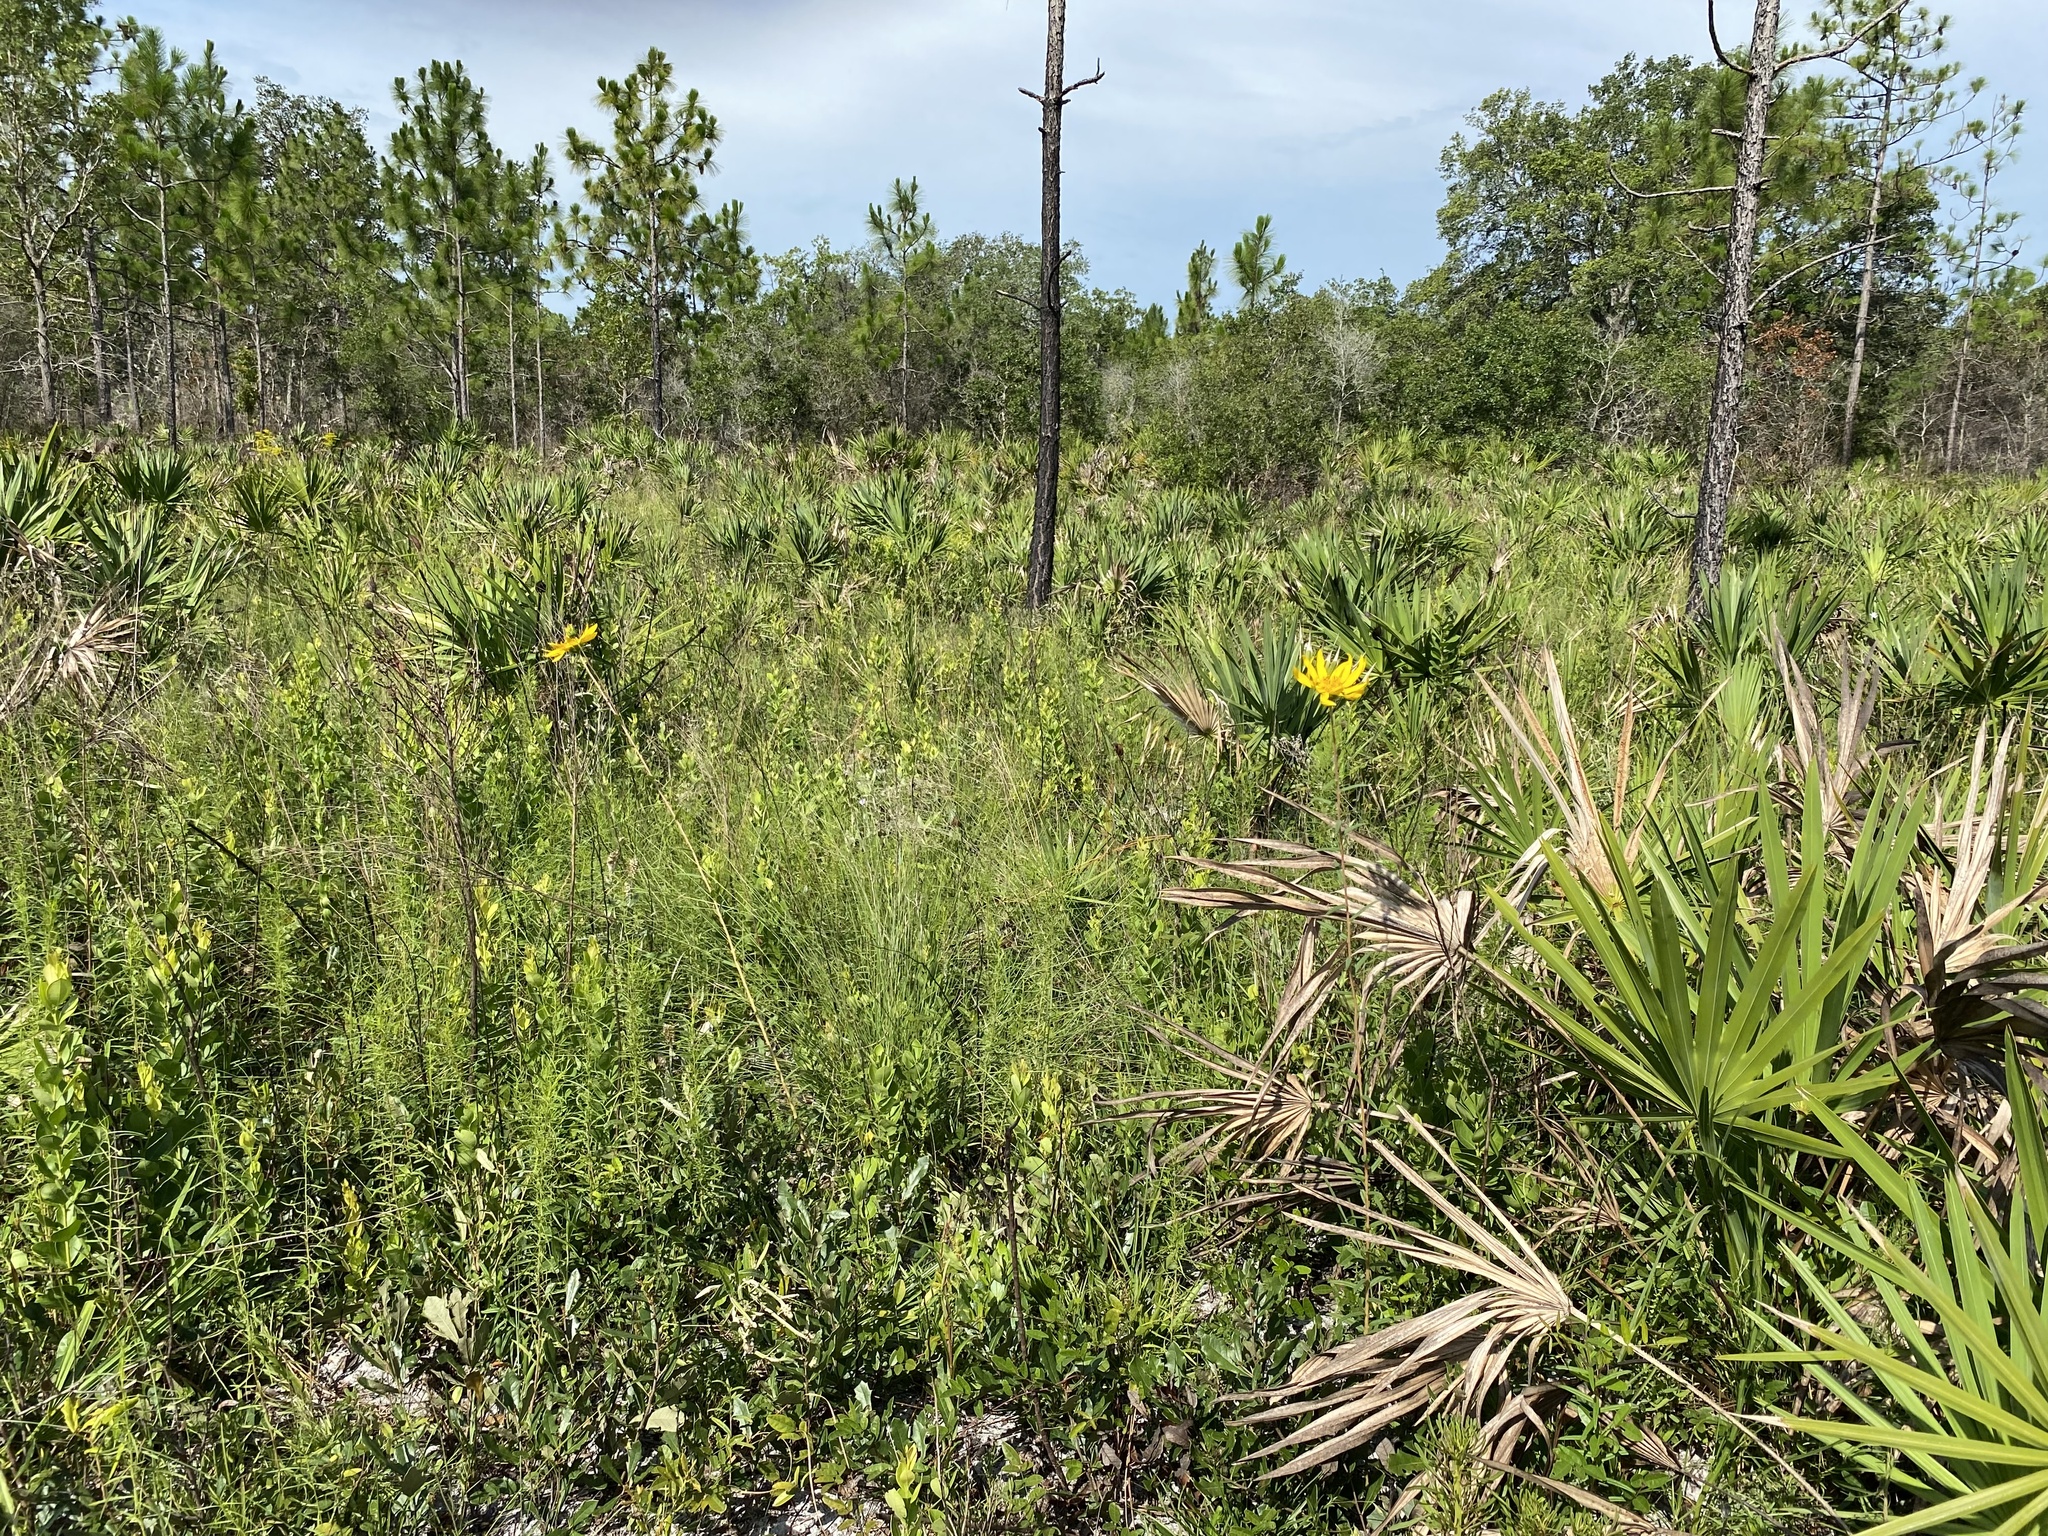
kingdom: Plantae
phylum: Tracheophyta
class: Magnoliopsida
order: Asterales
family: Asteraceae
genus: Phoebanthus
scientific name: Phoebanthus grandiflora
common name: Florida false sunflower
